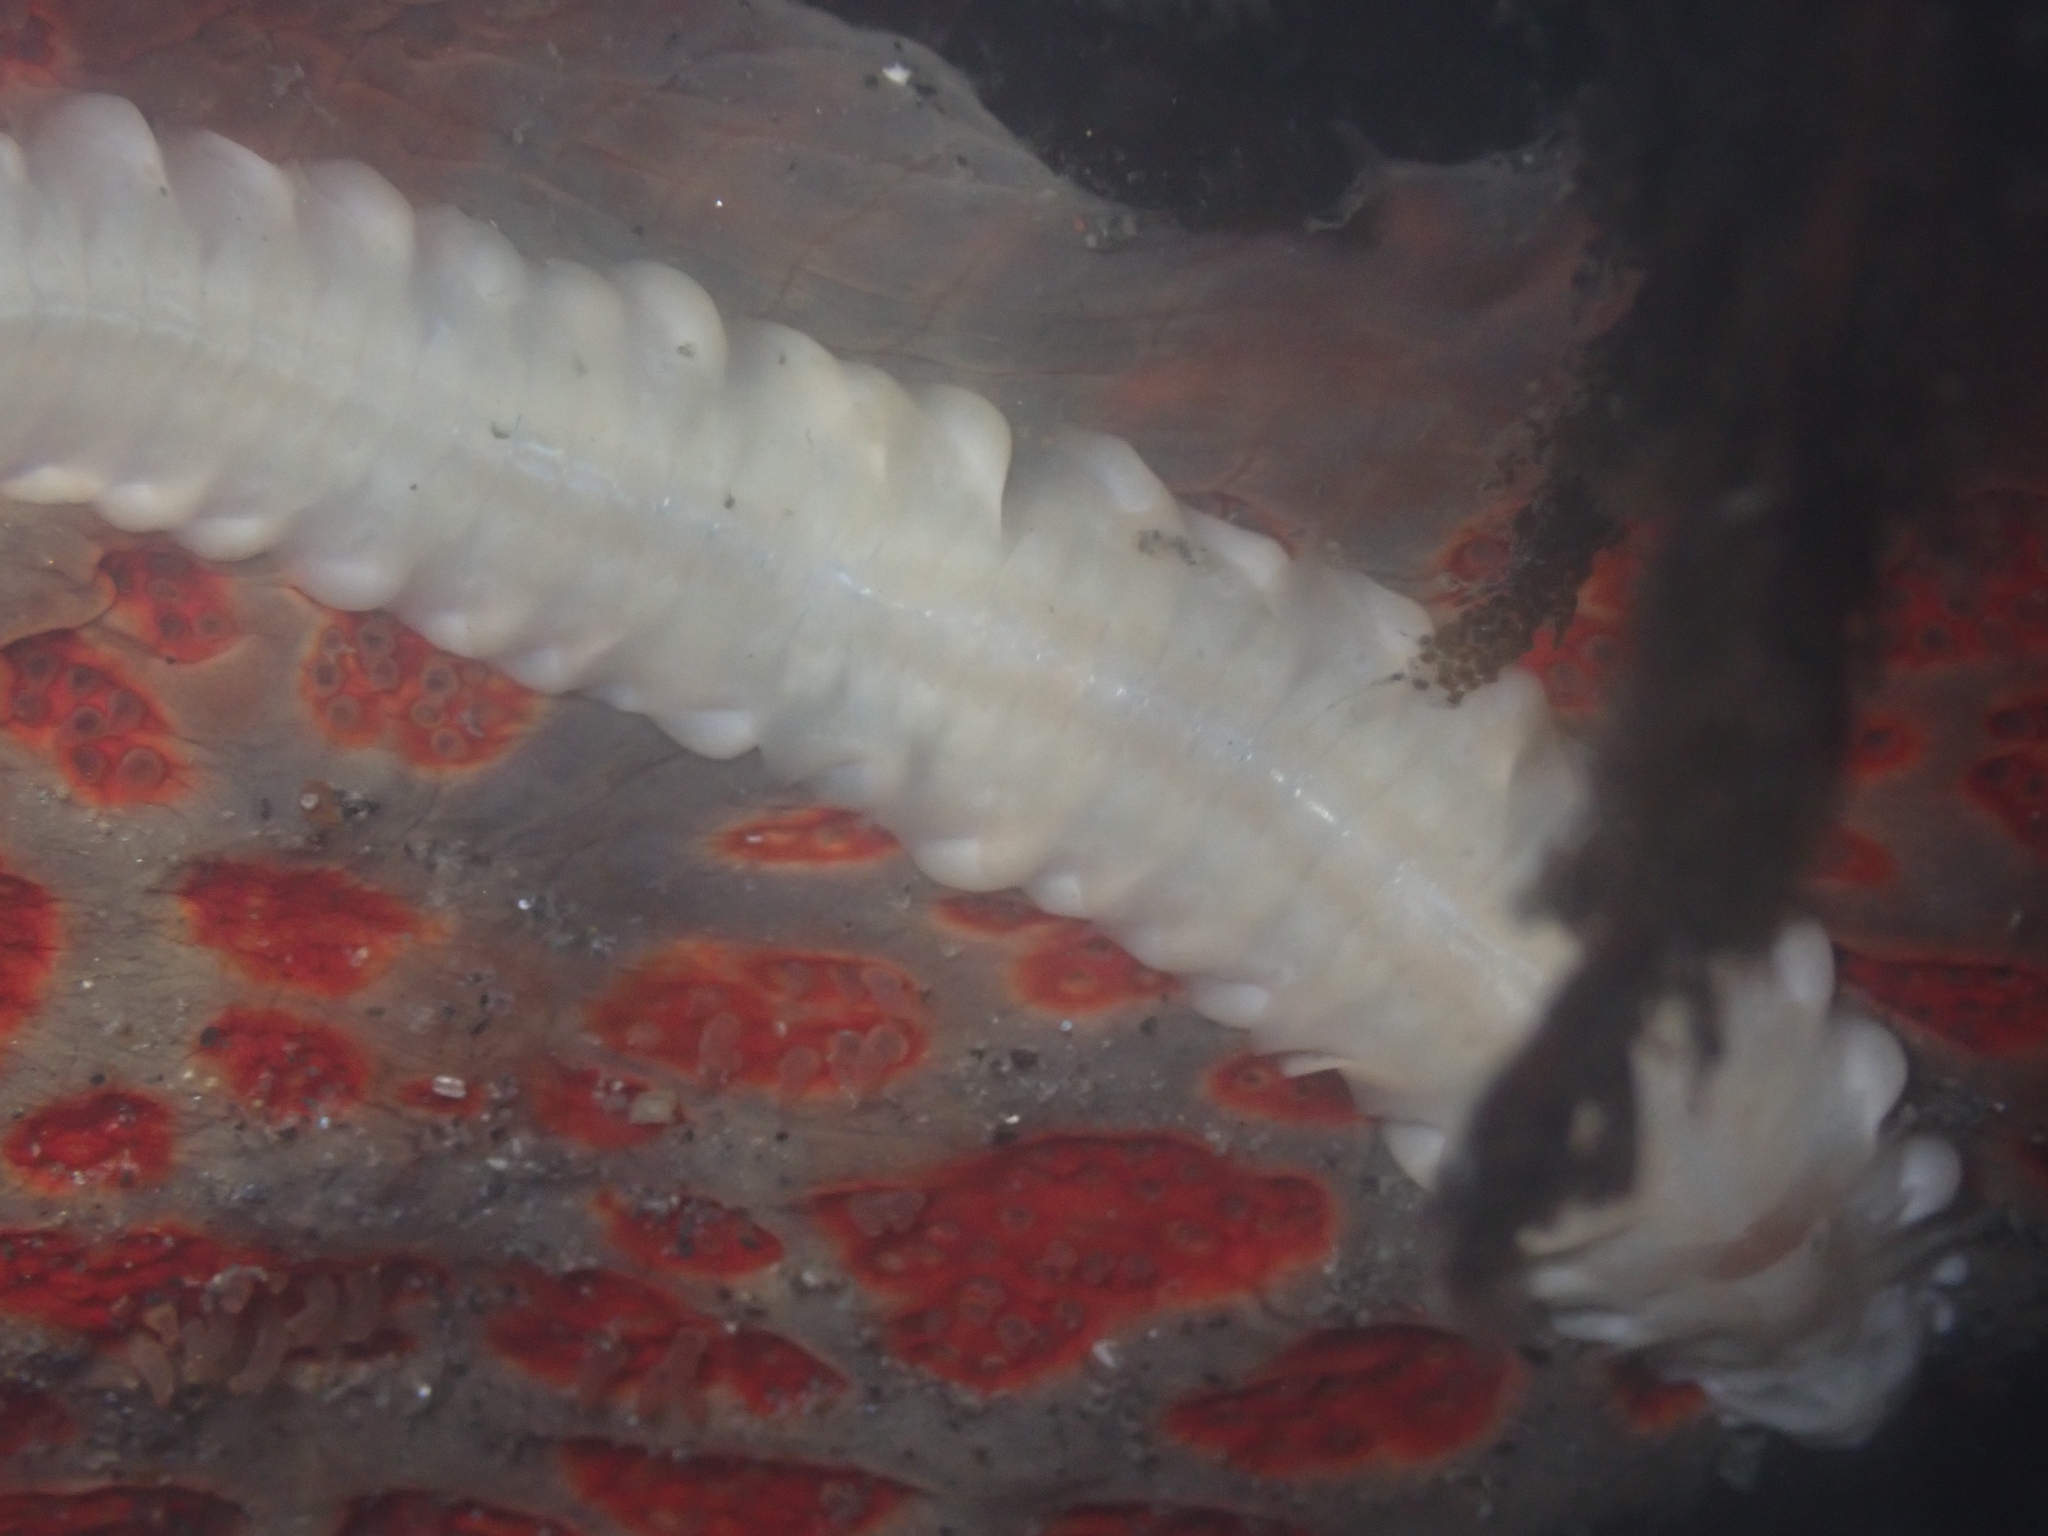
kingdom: Animalia
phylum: Annelida
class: Polychaeta
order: Phyllodocida
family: Polynoidae
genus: Arctonoe
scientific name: Arctonoe vittata
